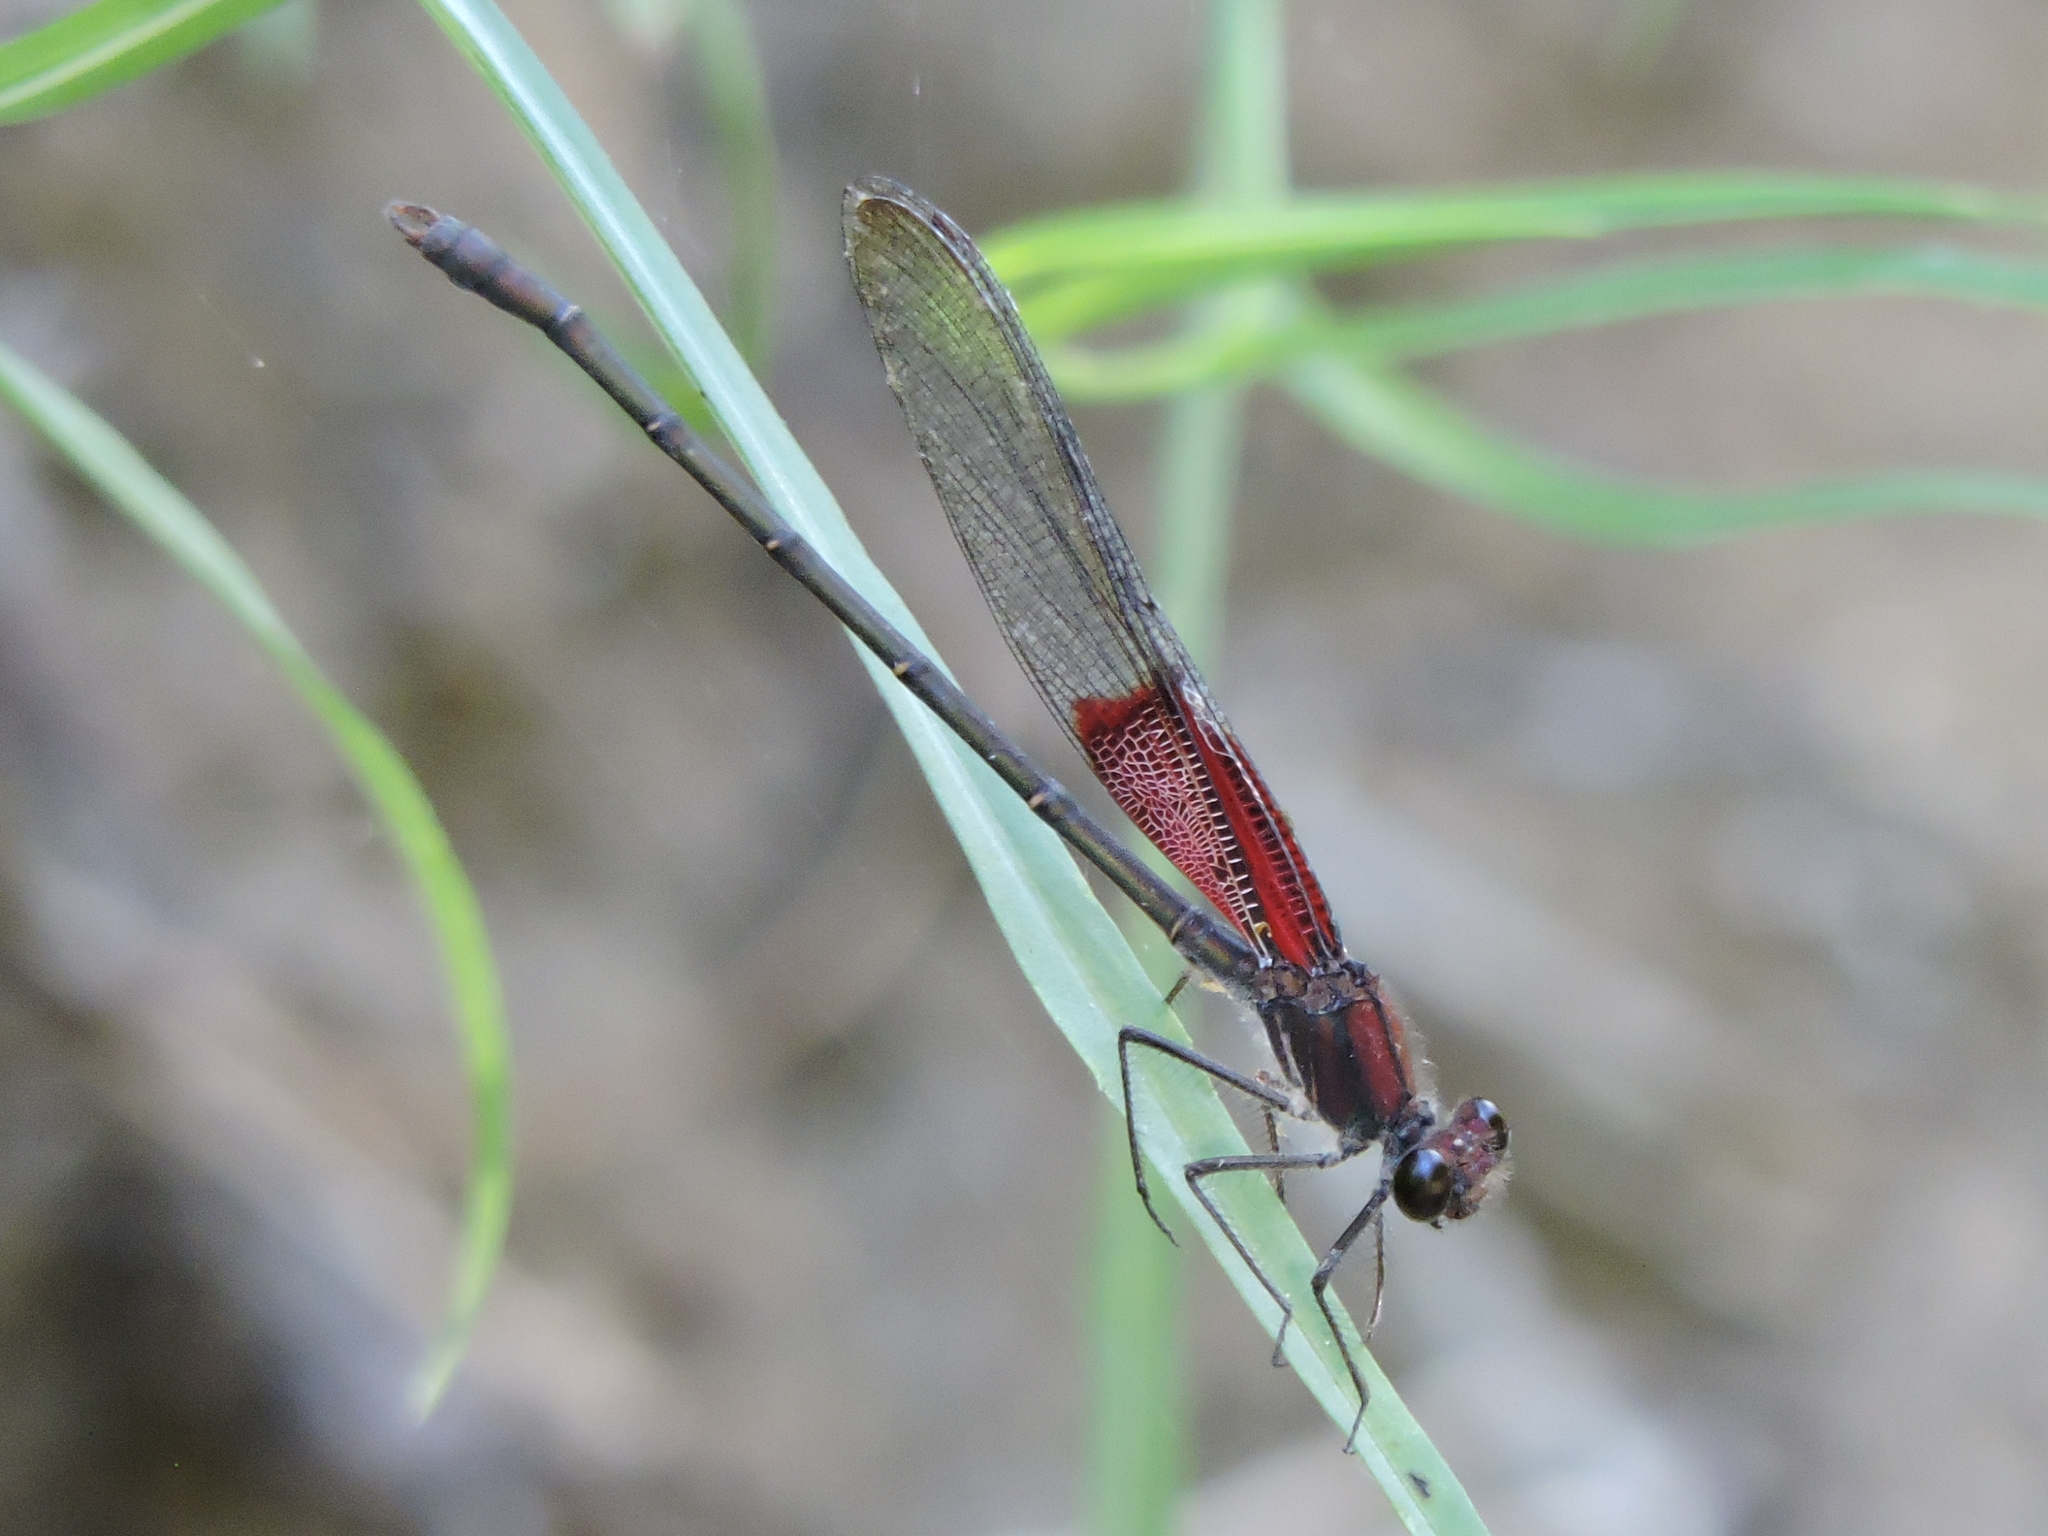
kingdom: Animalia
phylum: Arthropoda
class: Insecta
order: Odonata
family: Calopterygidae
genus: Hetaerina
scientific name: Hetaerina americana
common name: American rubyspot
